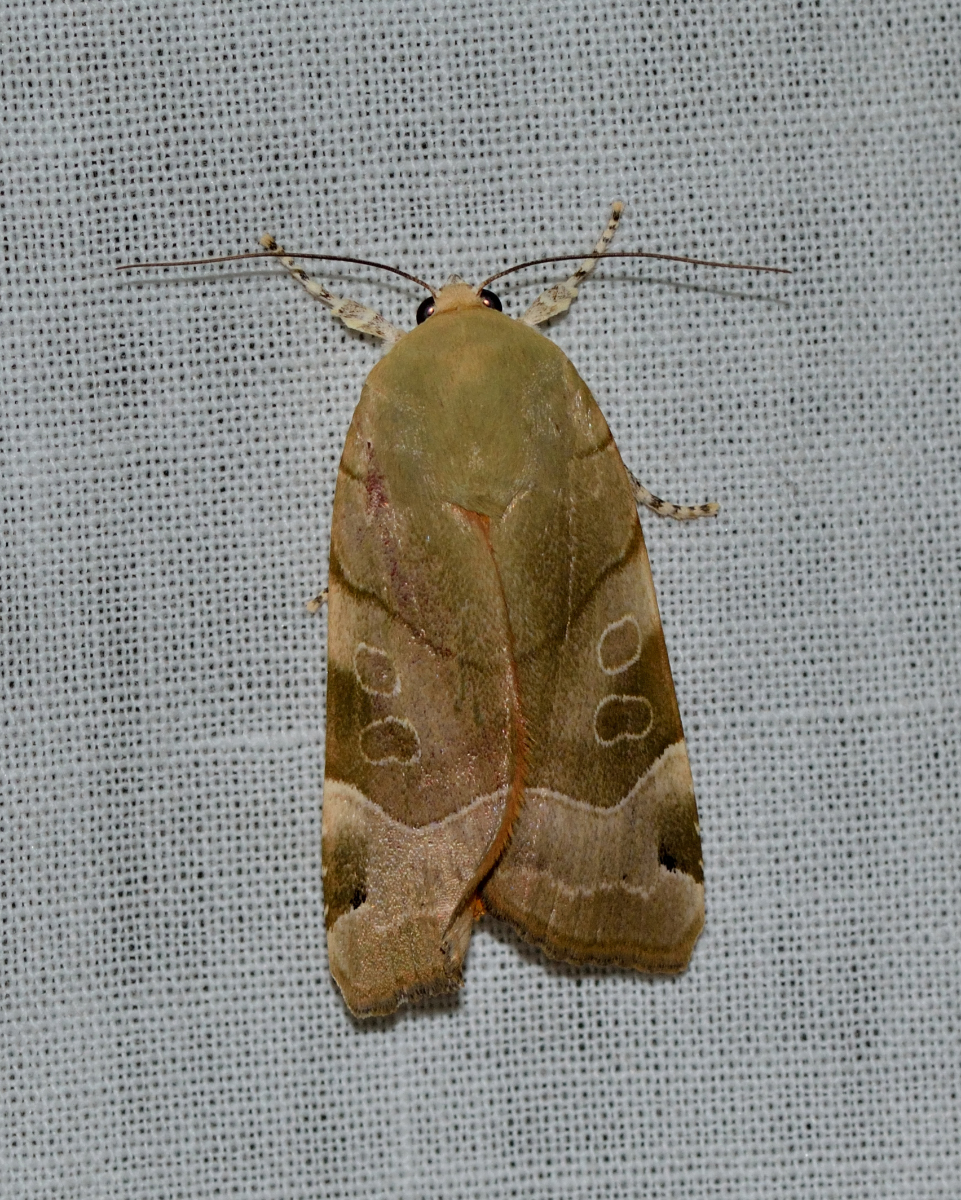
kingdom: Animalia
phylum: Arthropoda
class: Insecta
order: Lepidoptera
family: Noctuidae
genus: Noctua
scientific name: Noctua fimbriata
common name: Broad-bordered yellow underwing
